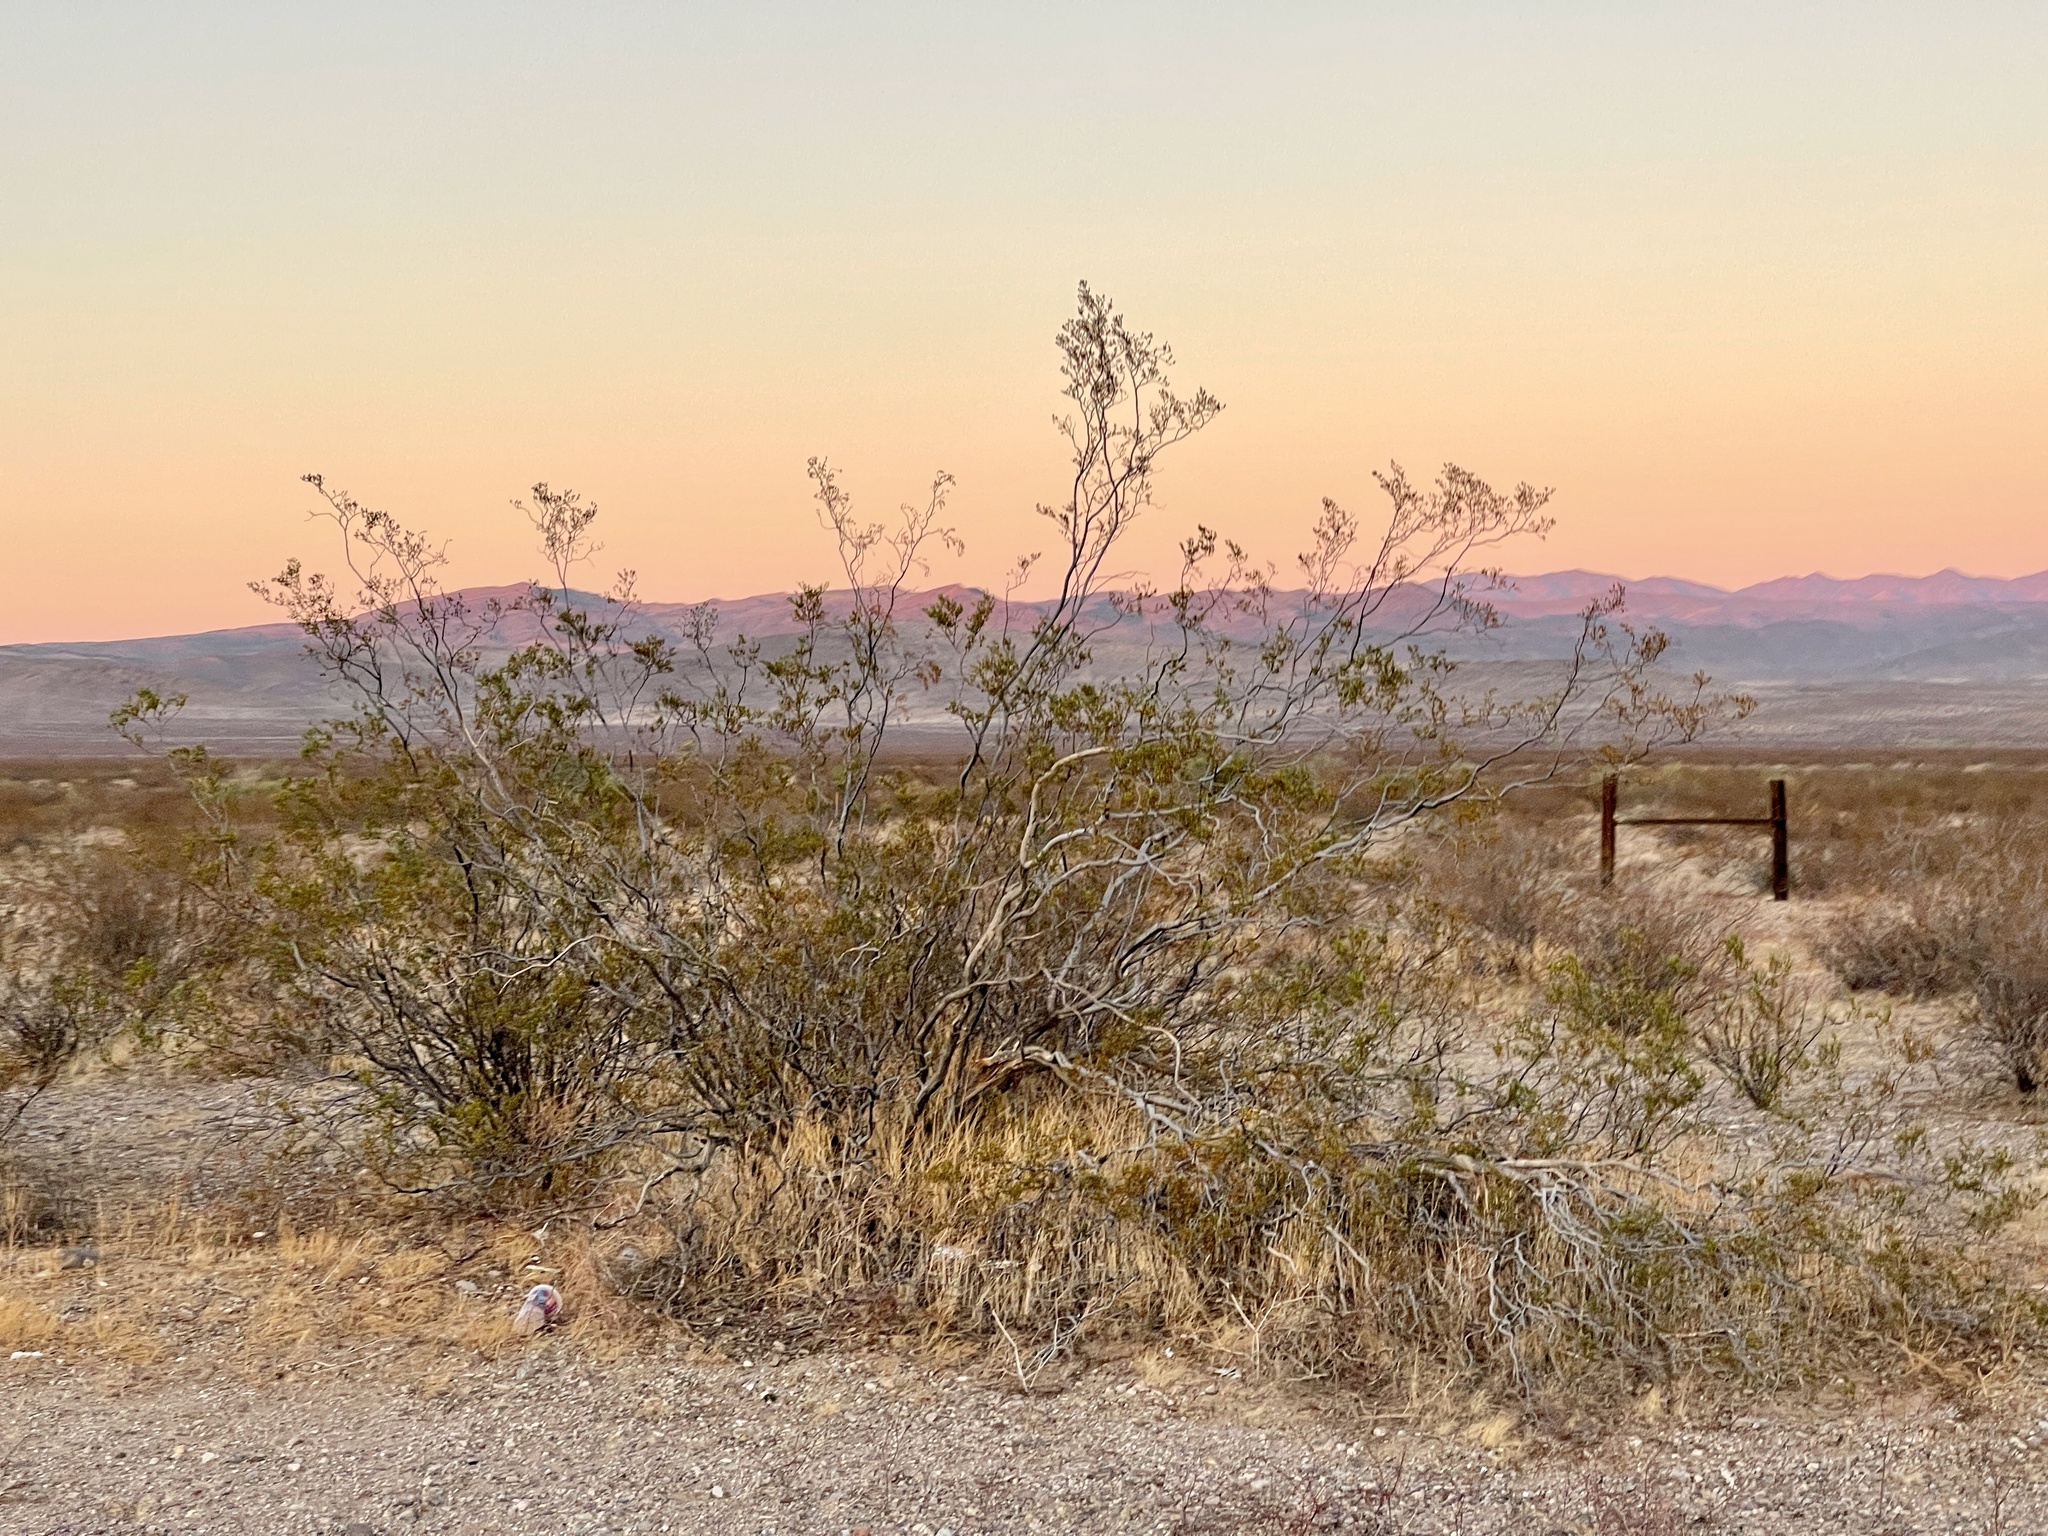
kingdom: Plantae
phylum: Tracheophyta
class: Magnoliopsida
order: Zygophyllales
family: Zygophyllaceae
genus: Larrea
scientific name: Larrea tridentata
